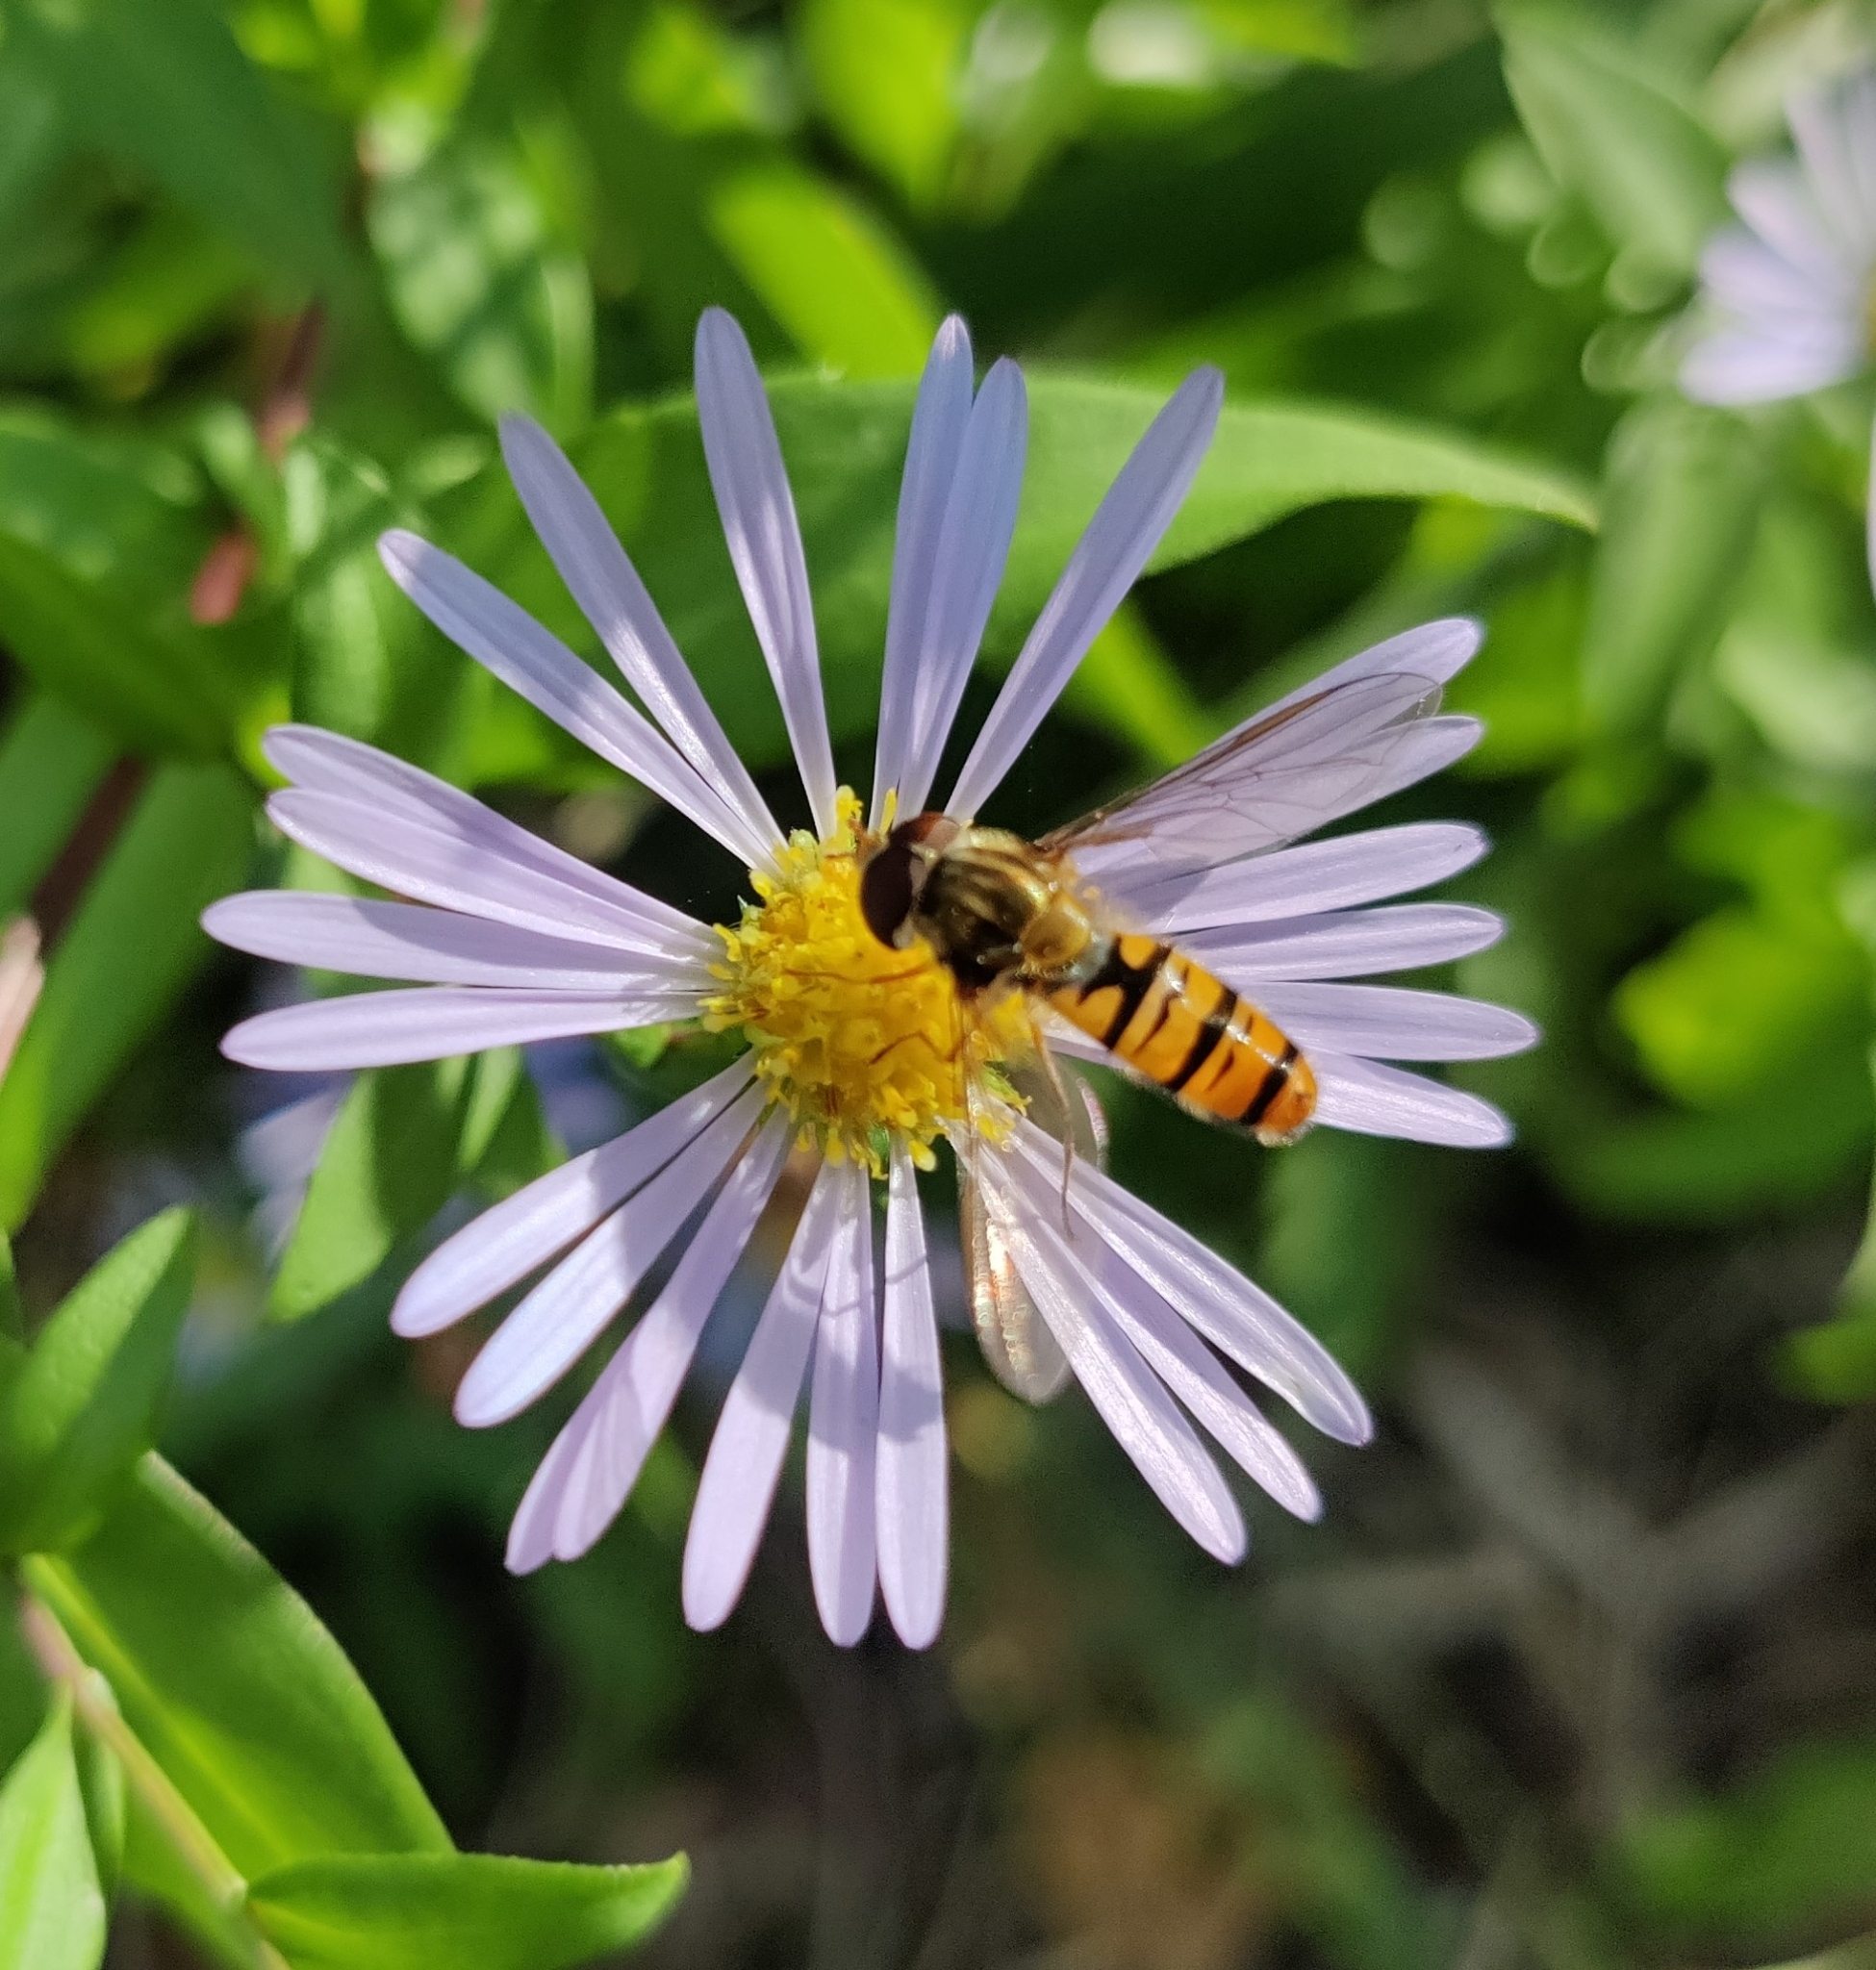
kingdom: Animalia
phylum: Arthropoda
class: Insecta
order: Diptera
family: Syrphidae
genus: Episyrphus
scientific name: Episyrphus balteatus
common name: Marmalade hoverfly
